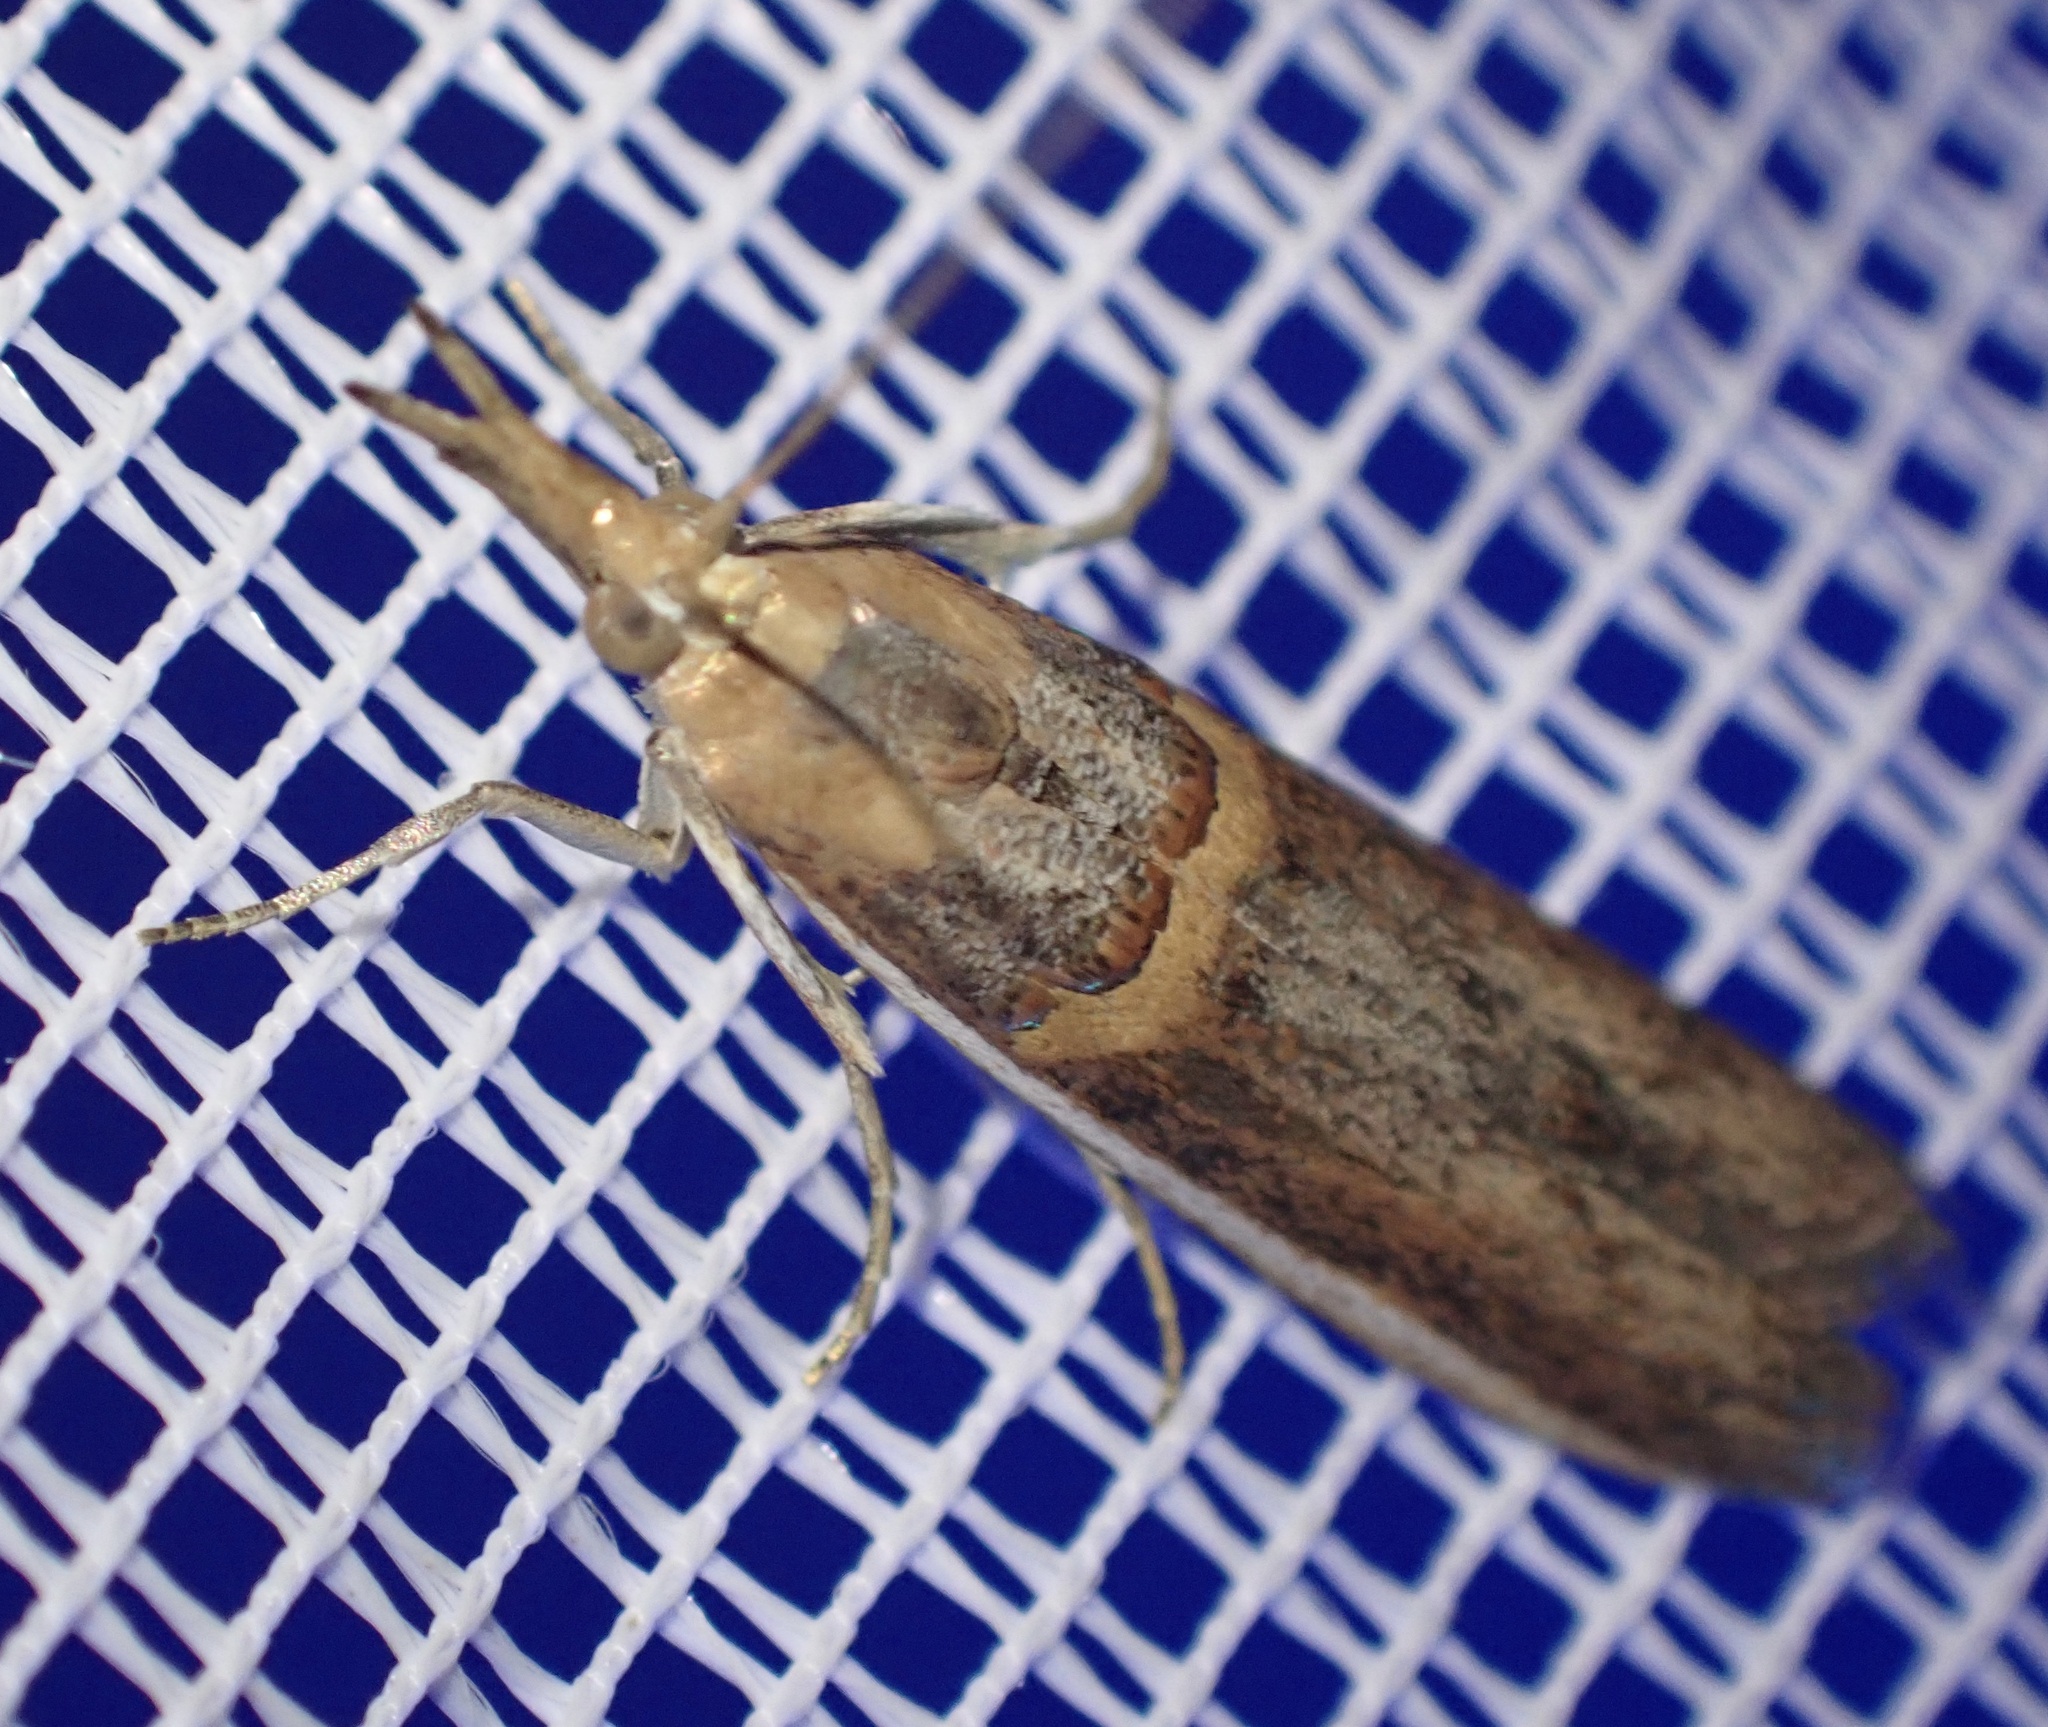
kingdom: Animalia
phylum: Arthropoda
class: Insecta
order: Lepidoptera
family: Pyralidae
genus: Etiella
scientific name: Etiella zinckenella
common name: Gold-banded etiella moth
